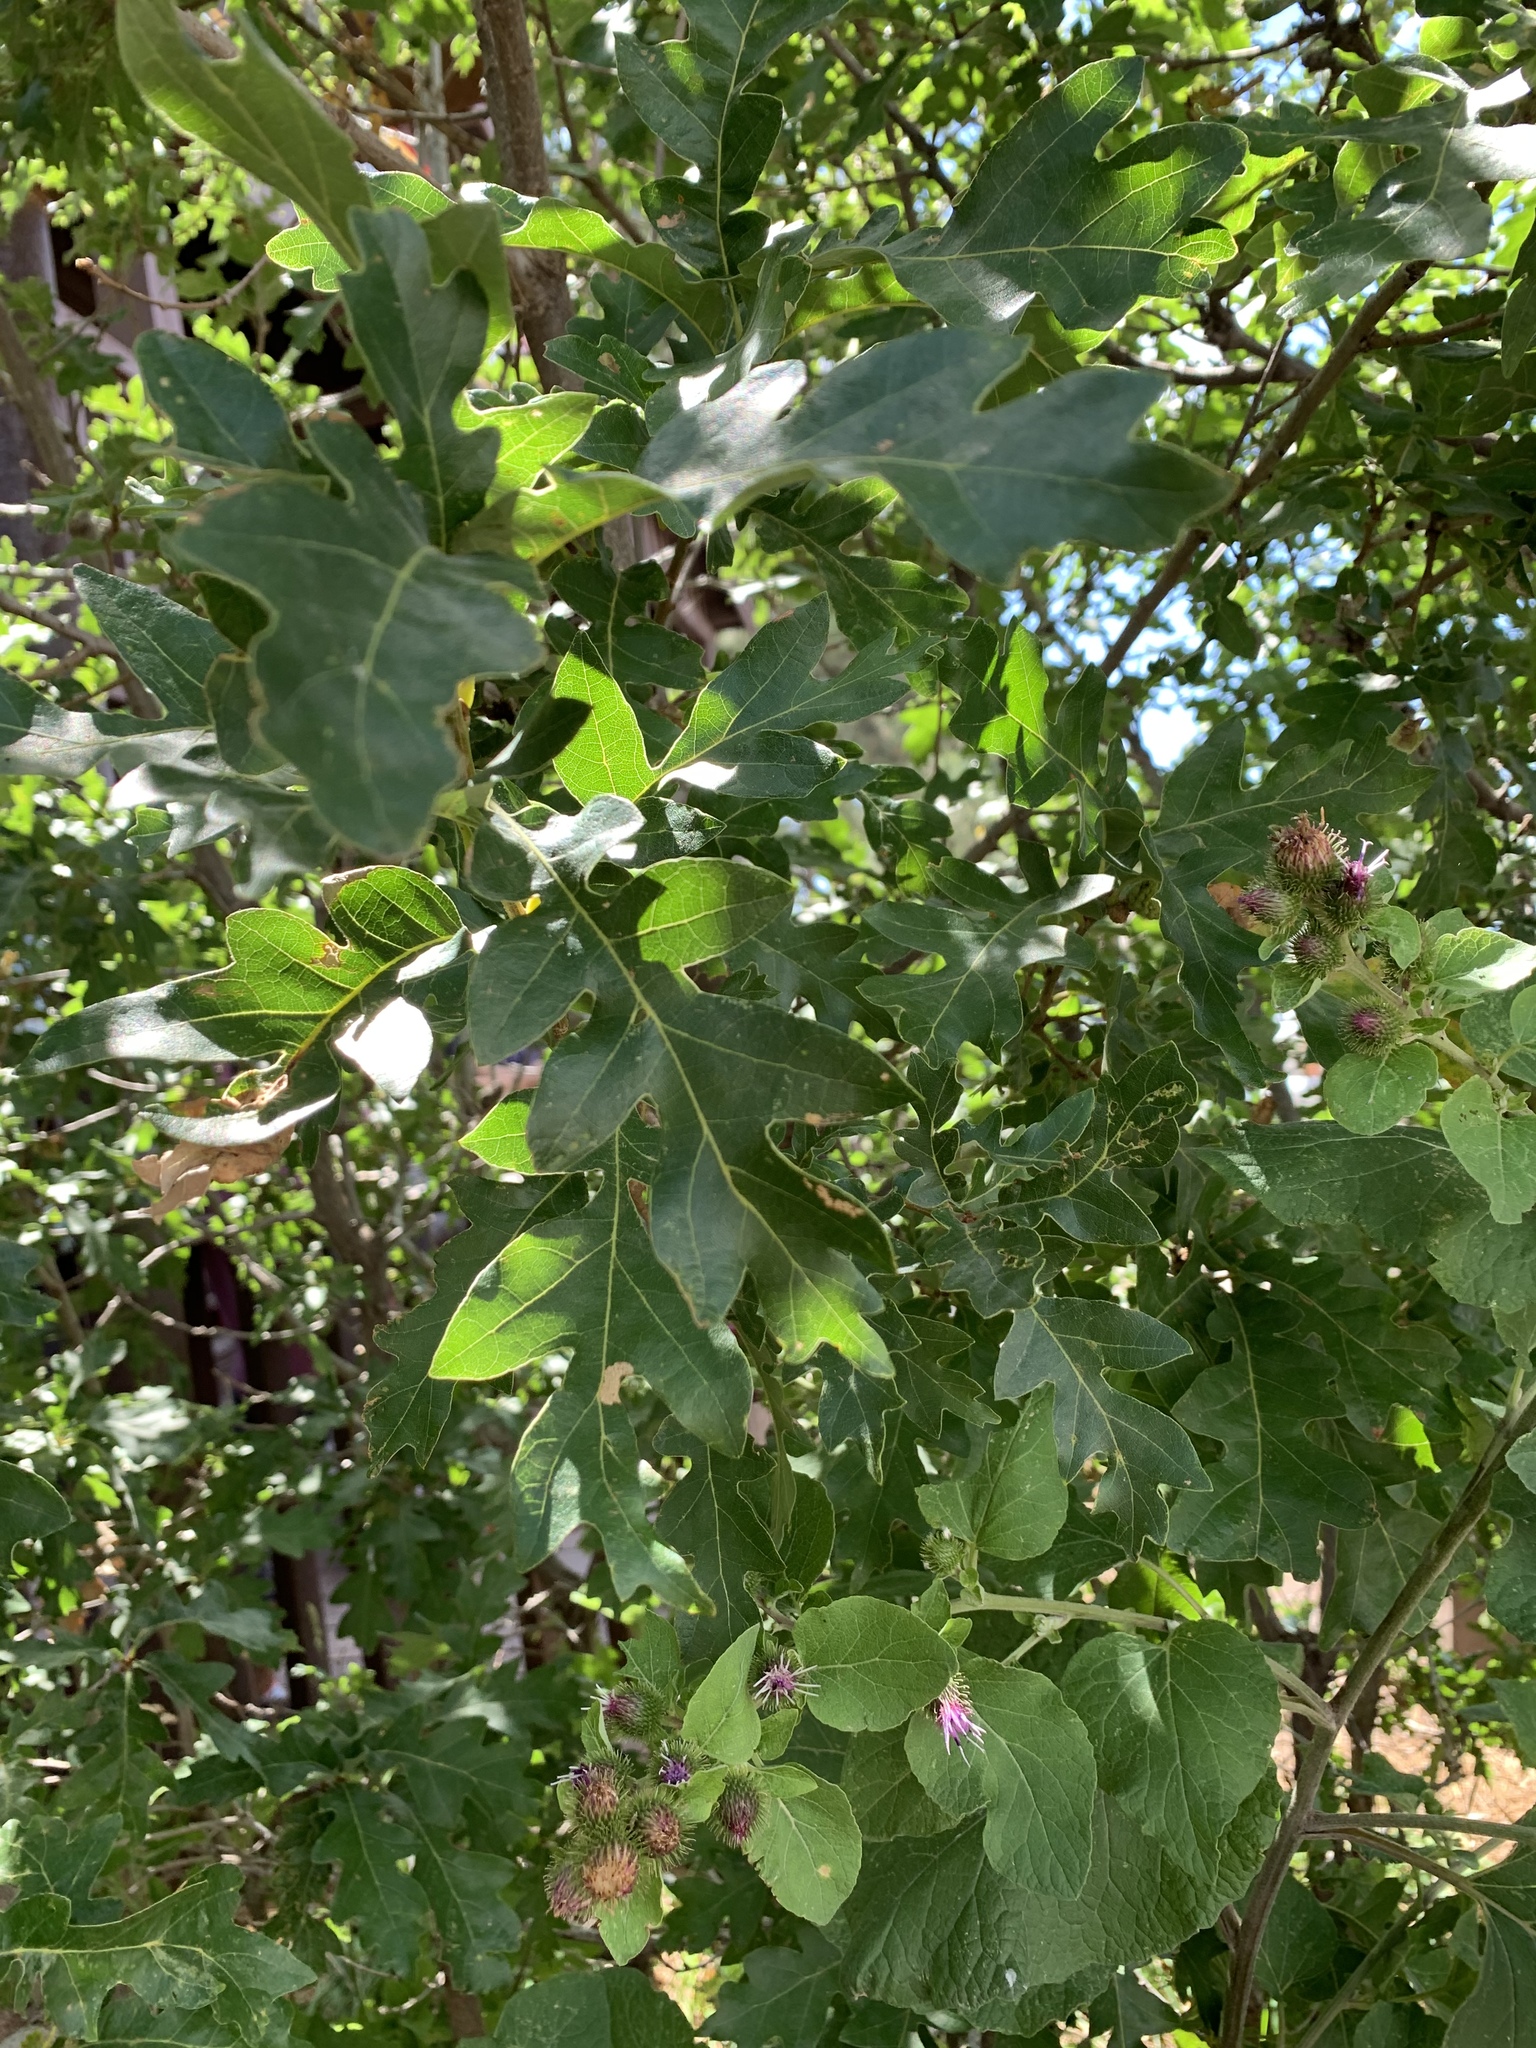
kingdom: Plantae
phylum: Tracheophyta
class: Magnoliopsida
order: Fagales
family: Fagaceae
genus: Quercus
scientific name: Quercus gambelii
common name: Gambel oak
